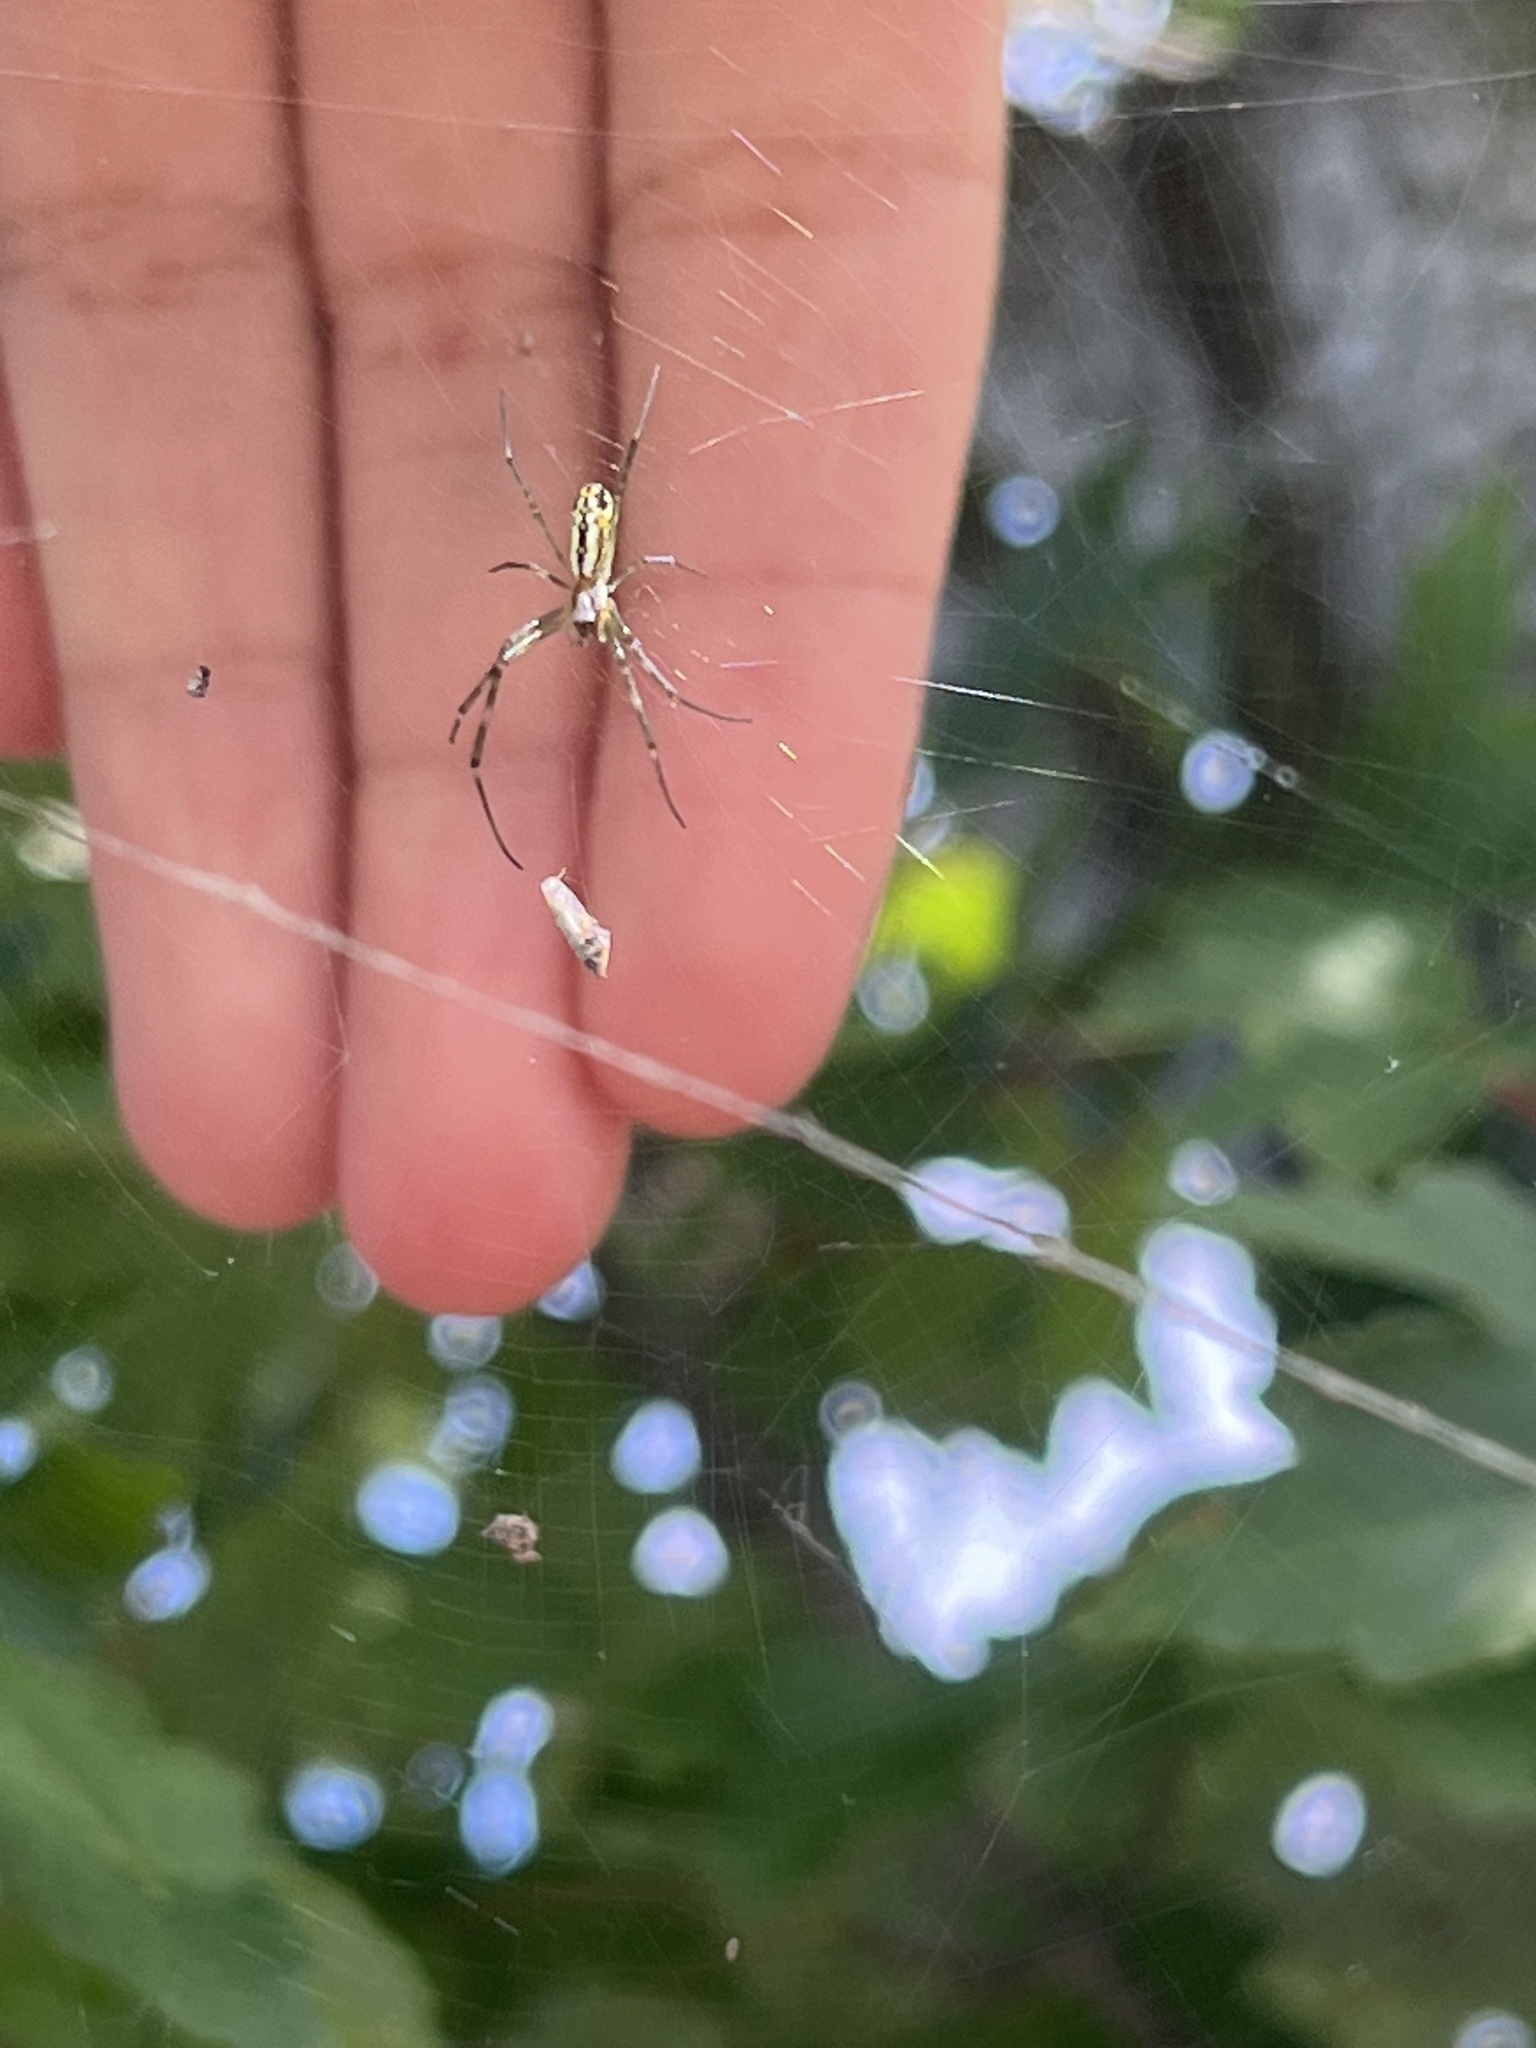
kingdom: Animalia
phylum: Arthropoda
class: Arachnida
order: Araneae
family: Araneidae
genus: Trichonephila
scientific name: Trichonephila clavata
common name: Jorō spider
